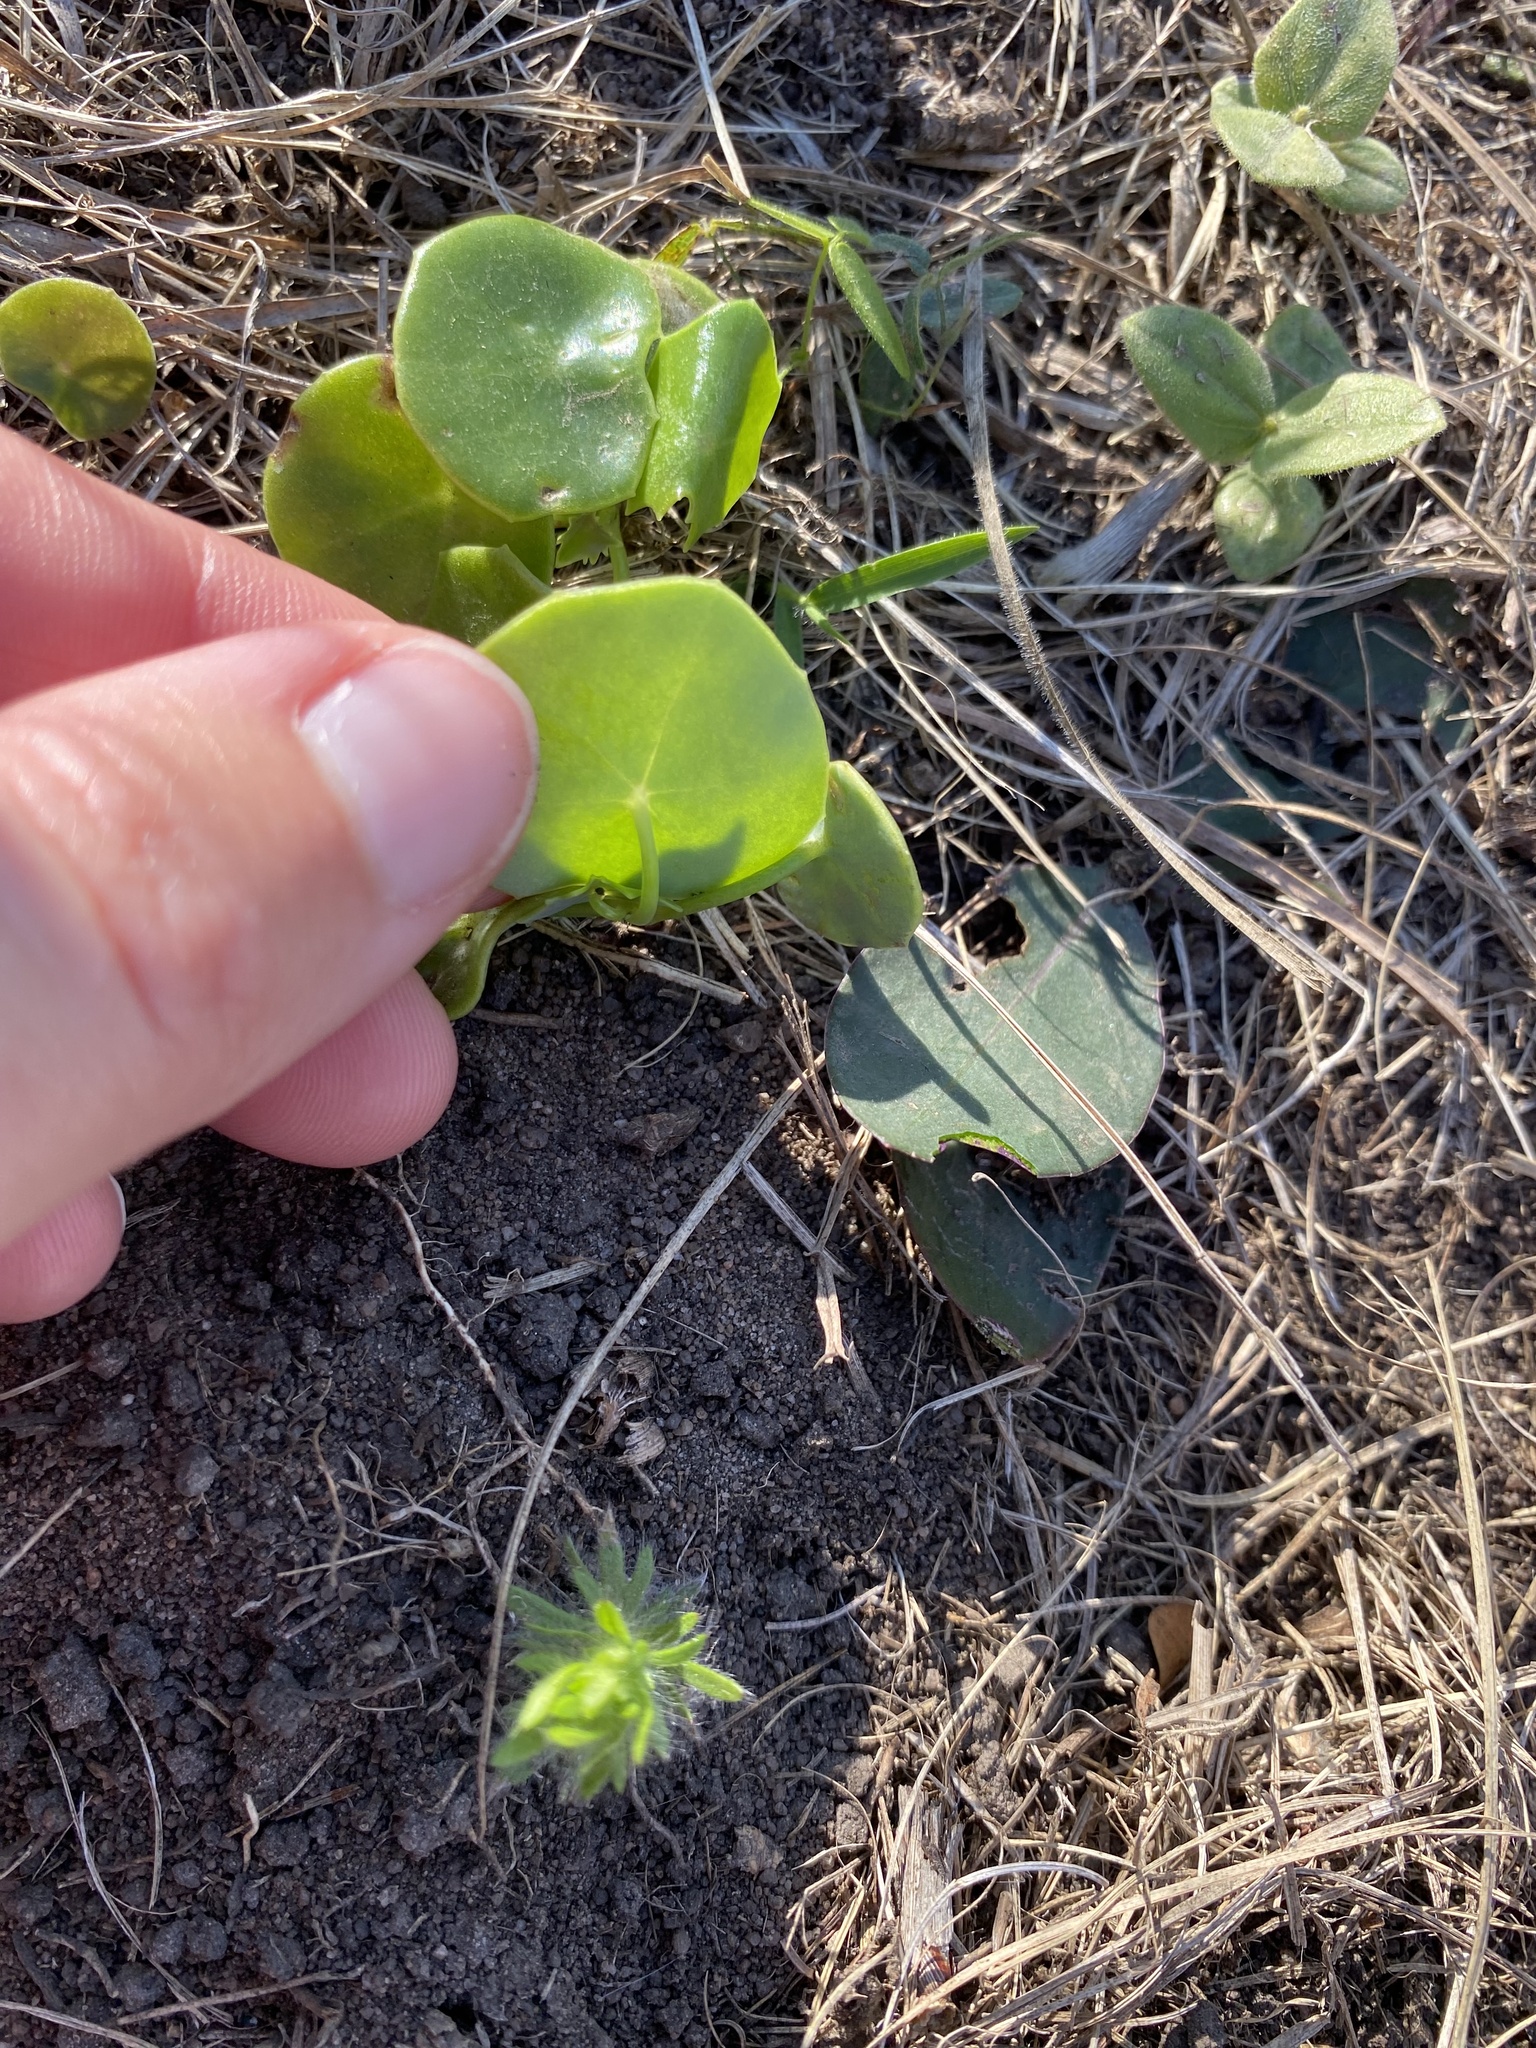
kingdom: Plantae
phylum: Tracheophyta
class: Magnoliopsida
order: Asterales
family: Asteraceae
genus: Senecio
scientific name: Senecio oxyriifolius
